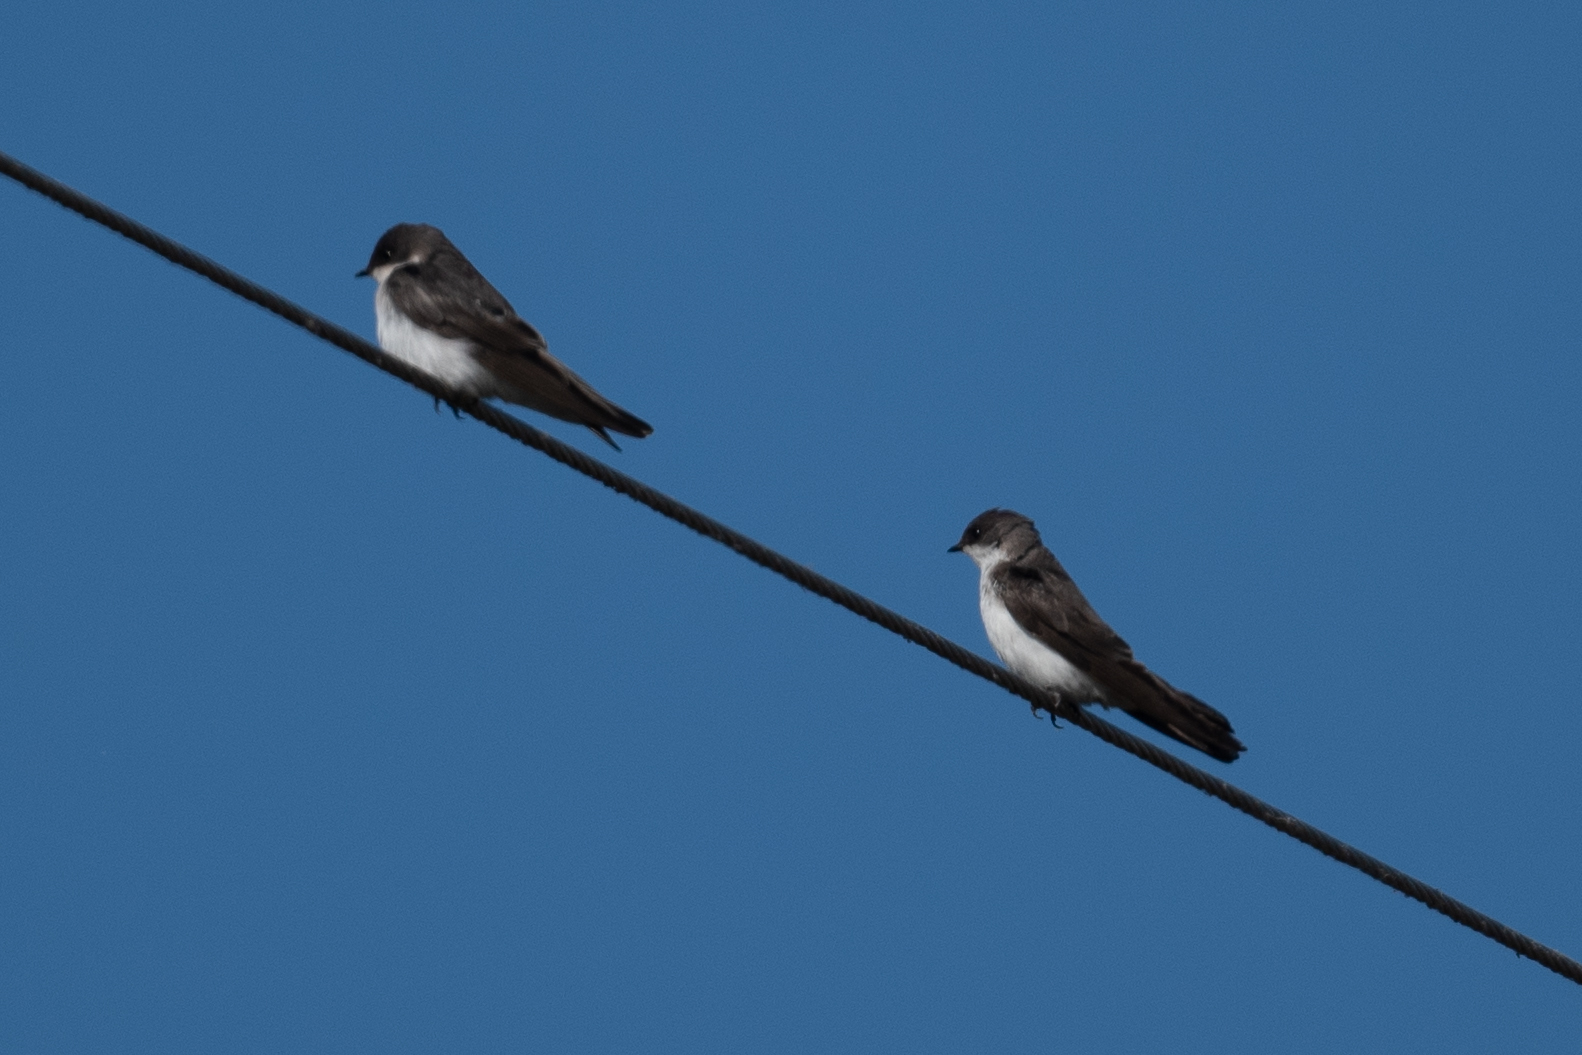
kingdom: Animalia
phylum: Chordata
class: Aves
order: Passeriformes
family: Hirundinidae
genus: Tachycineta
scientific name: Tachycineta bicolor
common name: Tree swallow
